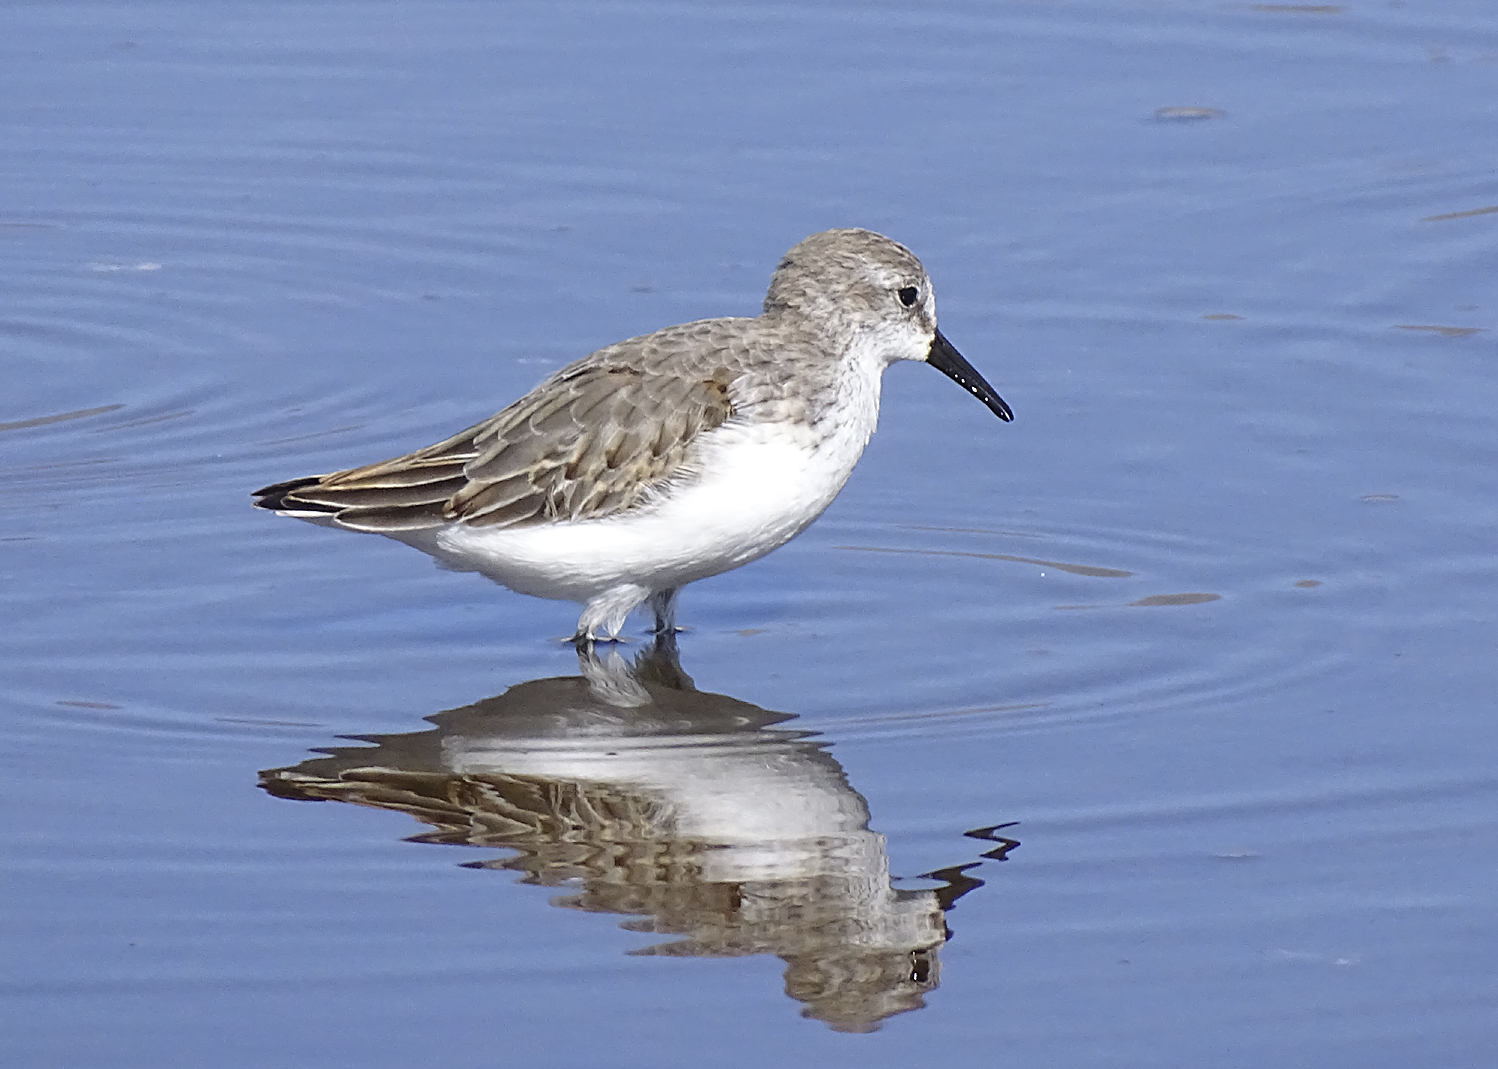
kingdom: Animalia
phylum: Chordata
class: Aves
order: Charadriiformes
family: Scolopacidae
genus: Calidris
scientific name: Calidris mauri
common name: Western sandpiper
